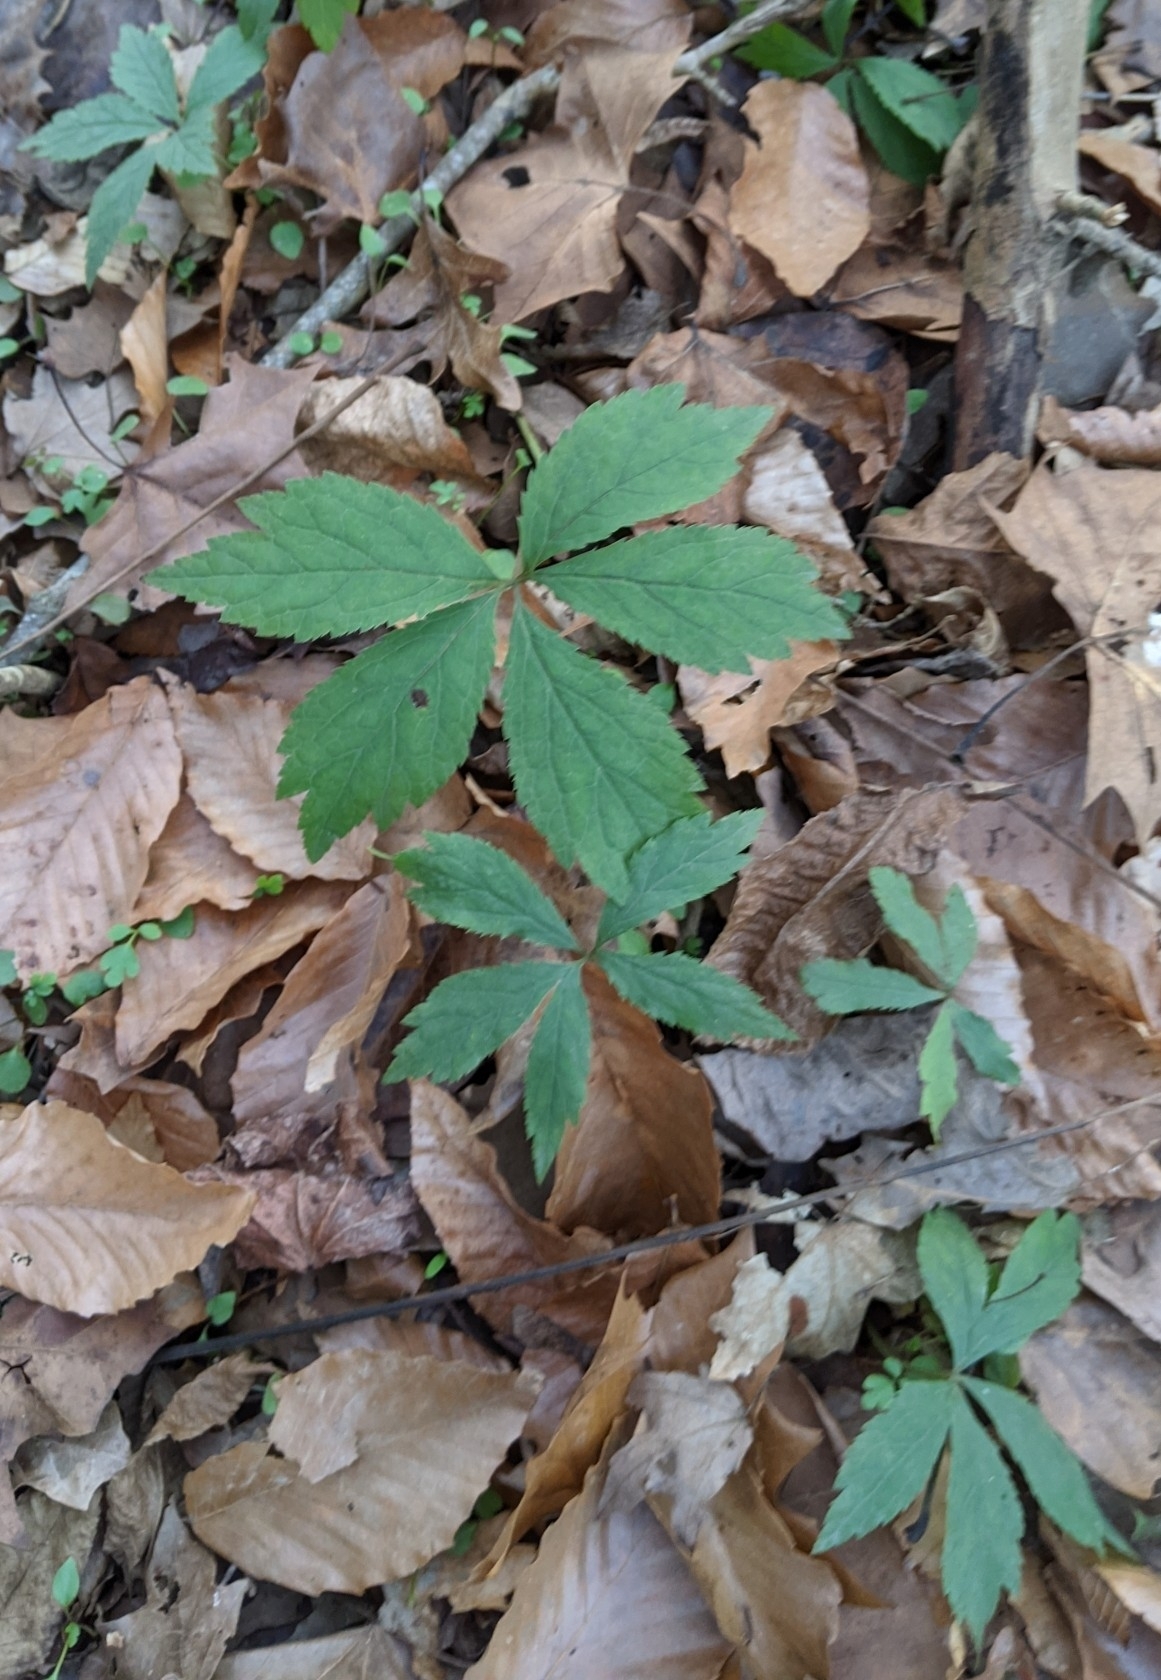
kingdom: Plantae
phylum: Tracheophyta
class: Magnoliopsida
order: Apiales
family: Apiaceae
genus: Sanicula
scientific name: Sanicula canadensis
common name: Canada sanicle
